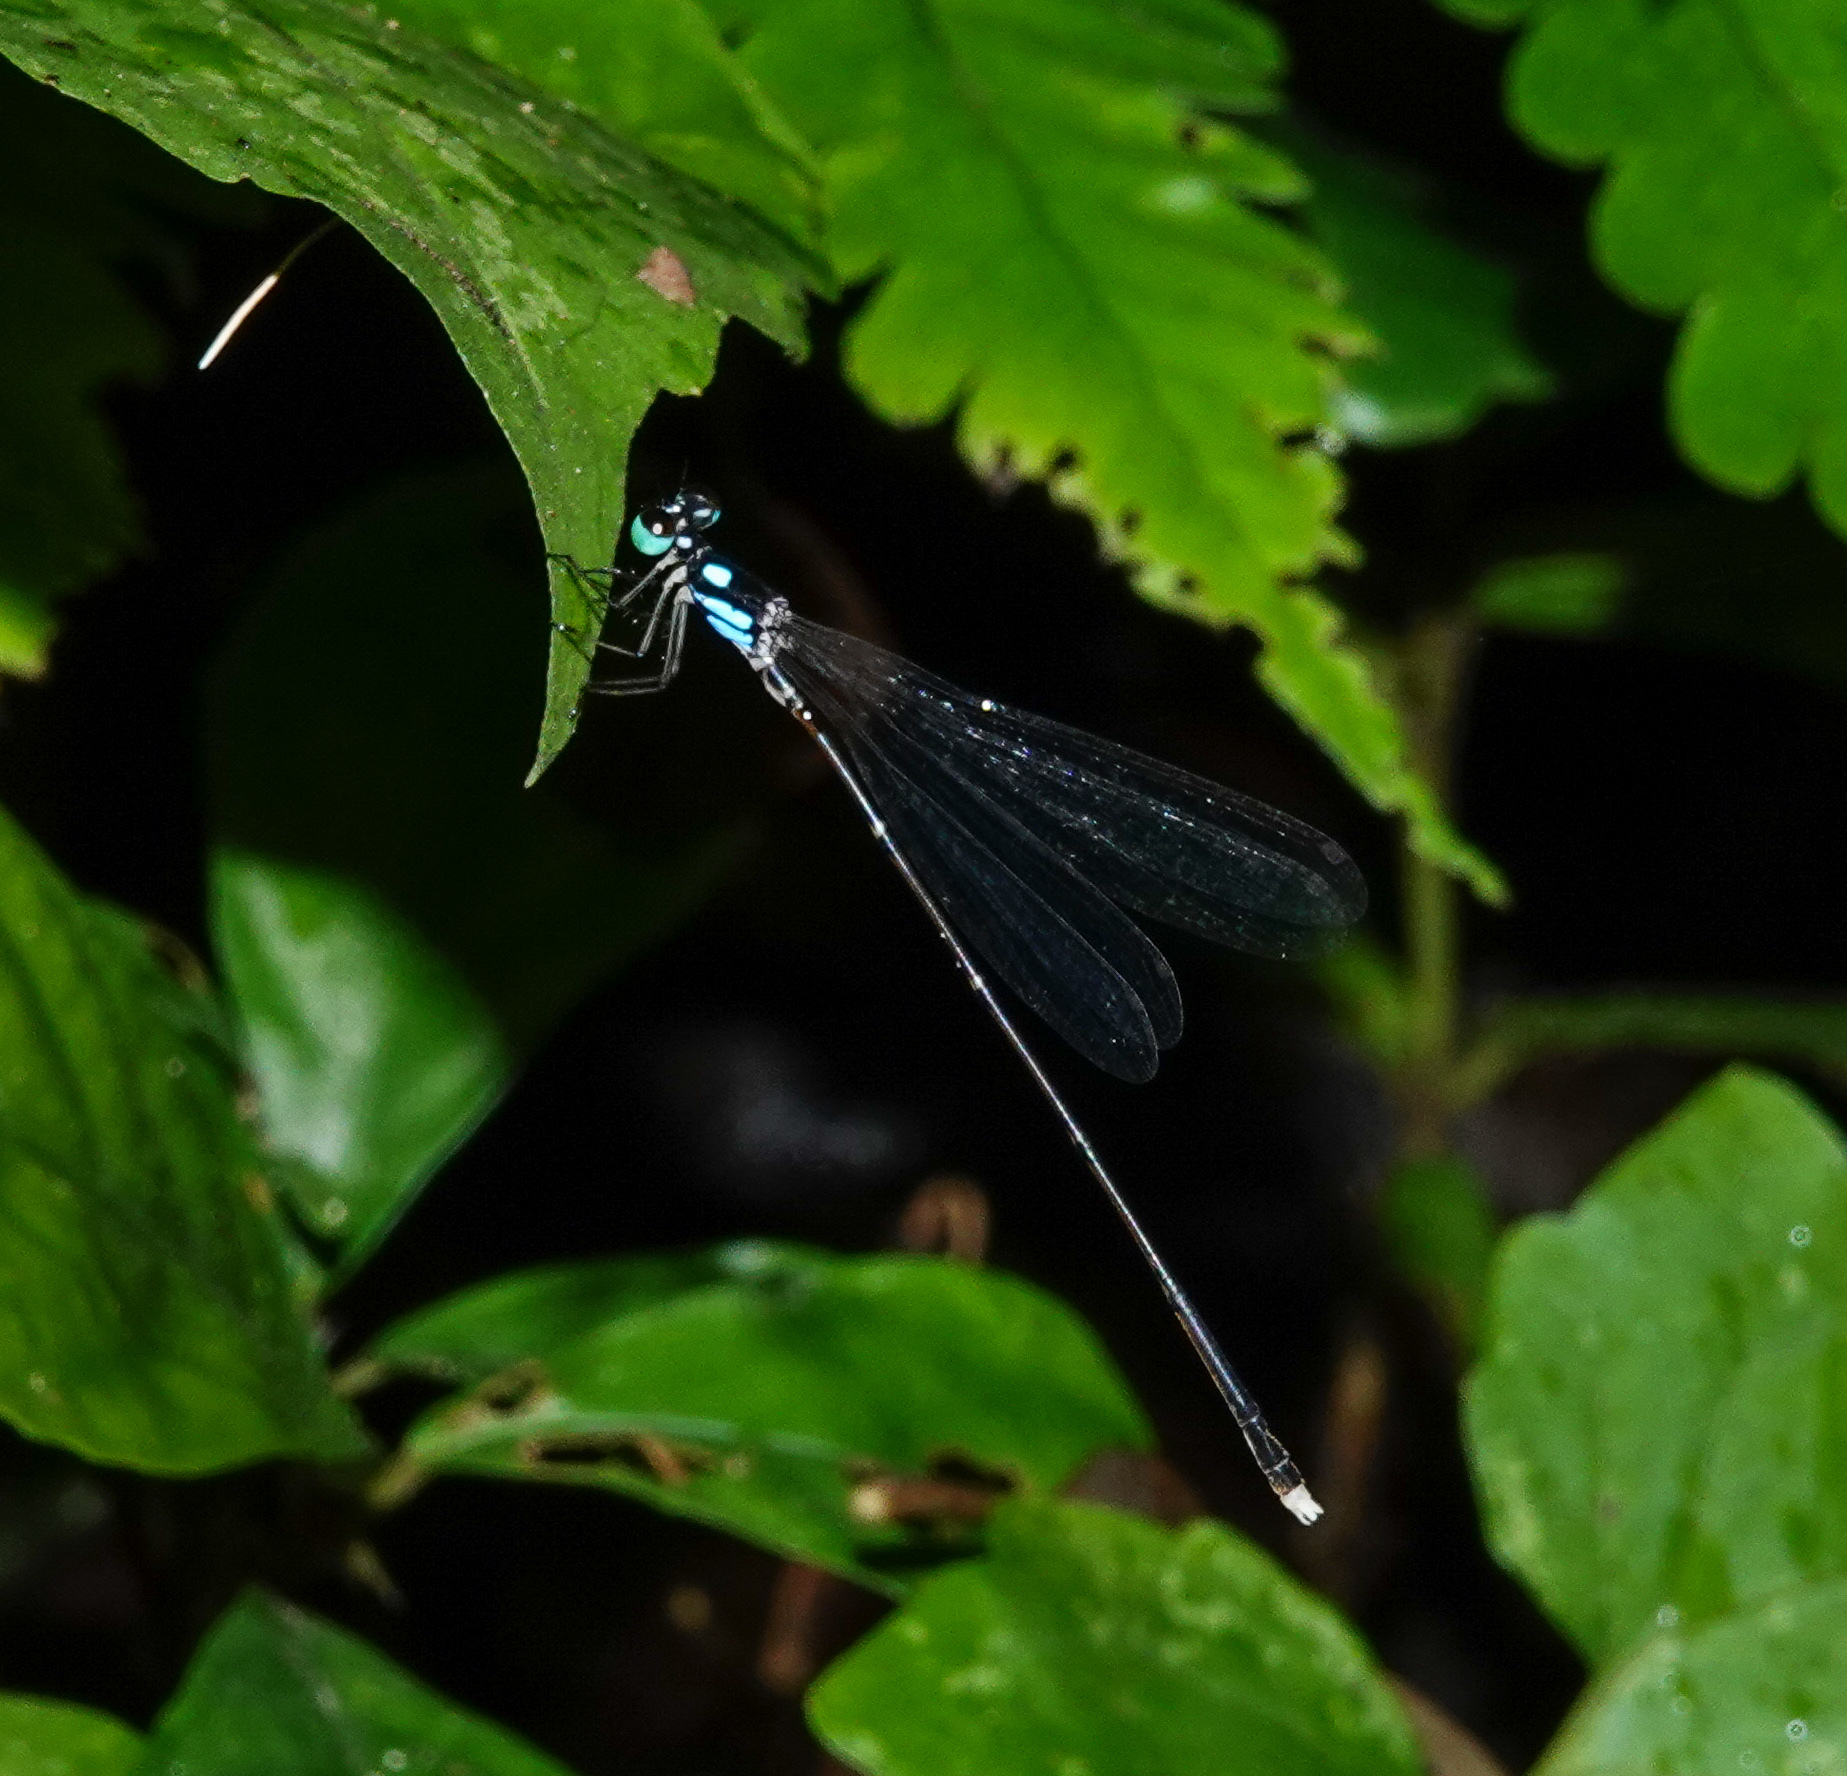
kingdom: Animalia
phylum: Arthropoda
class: Insecta
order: Odonata
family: Platycnemididae
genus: Coeliccia
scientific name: Coeliccia bimaculata
